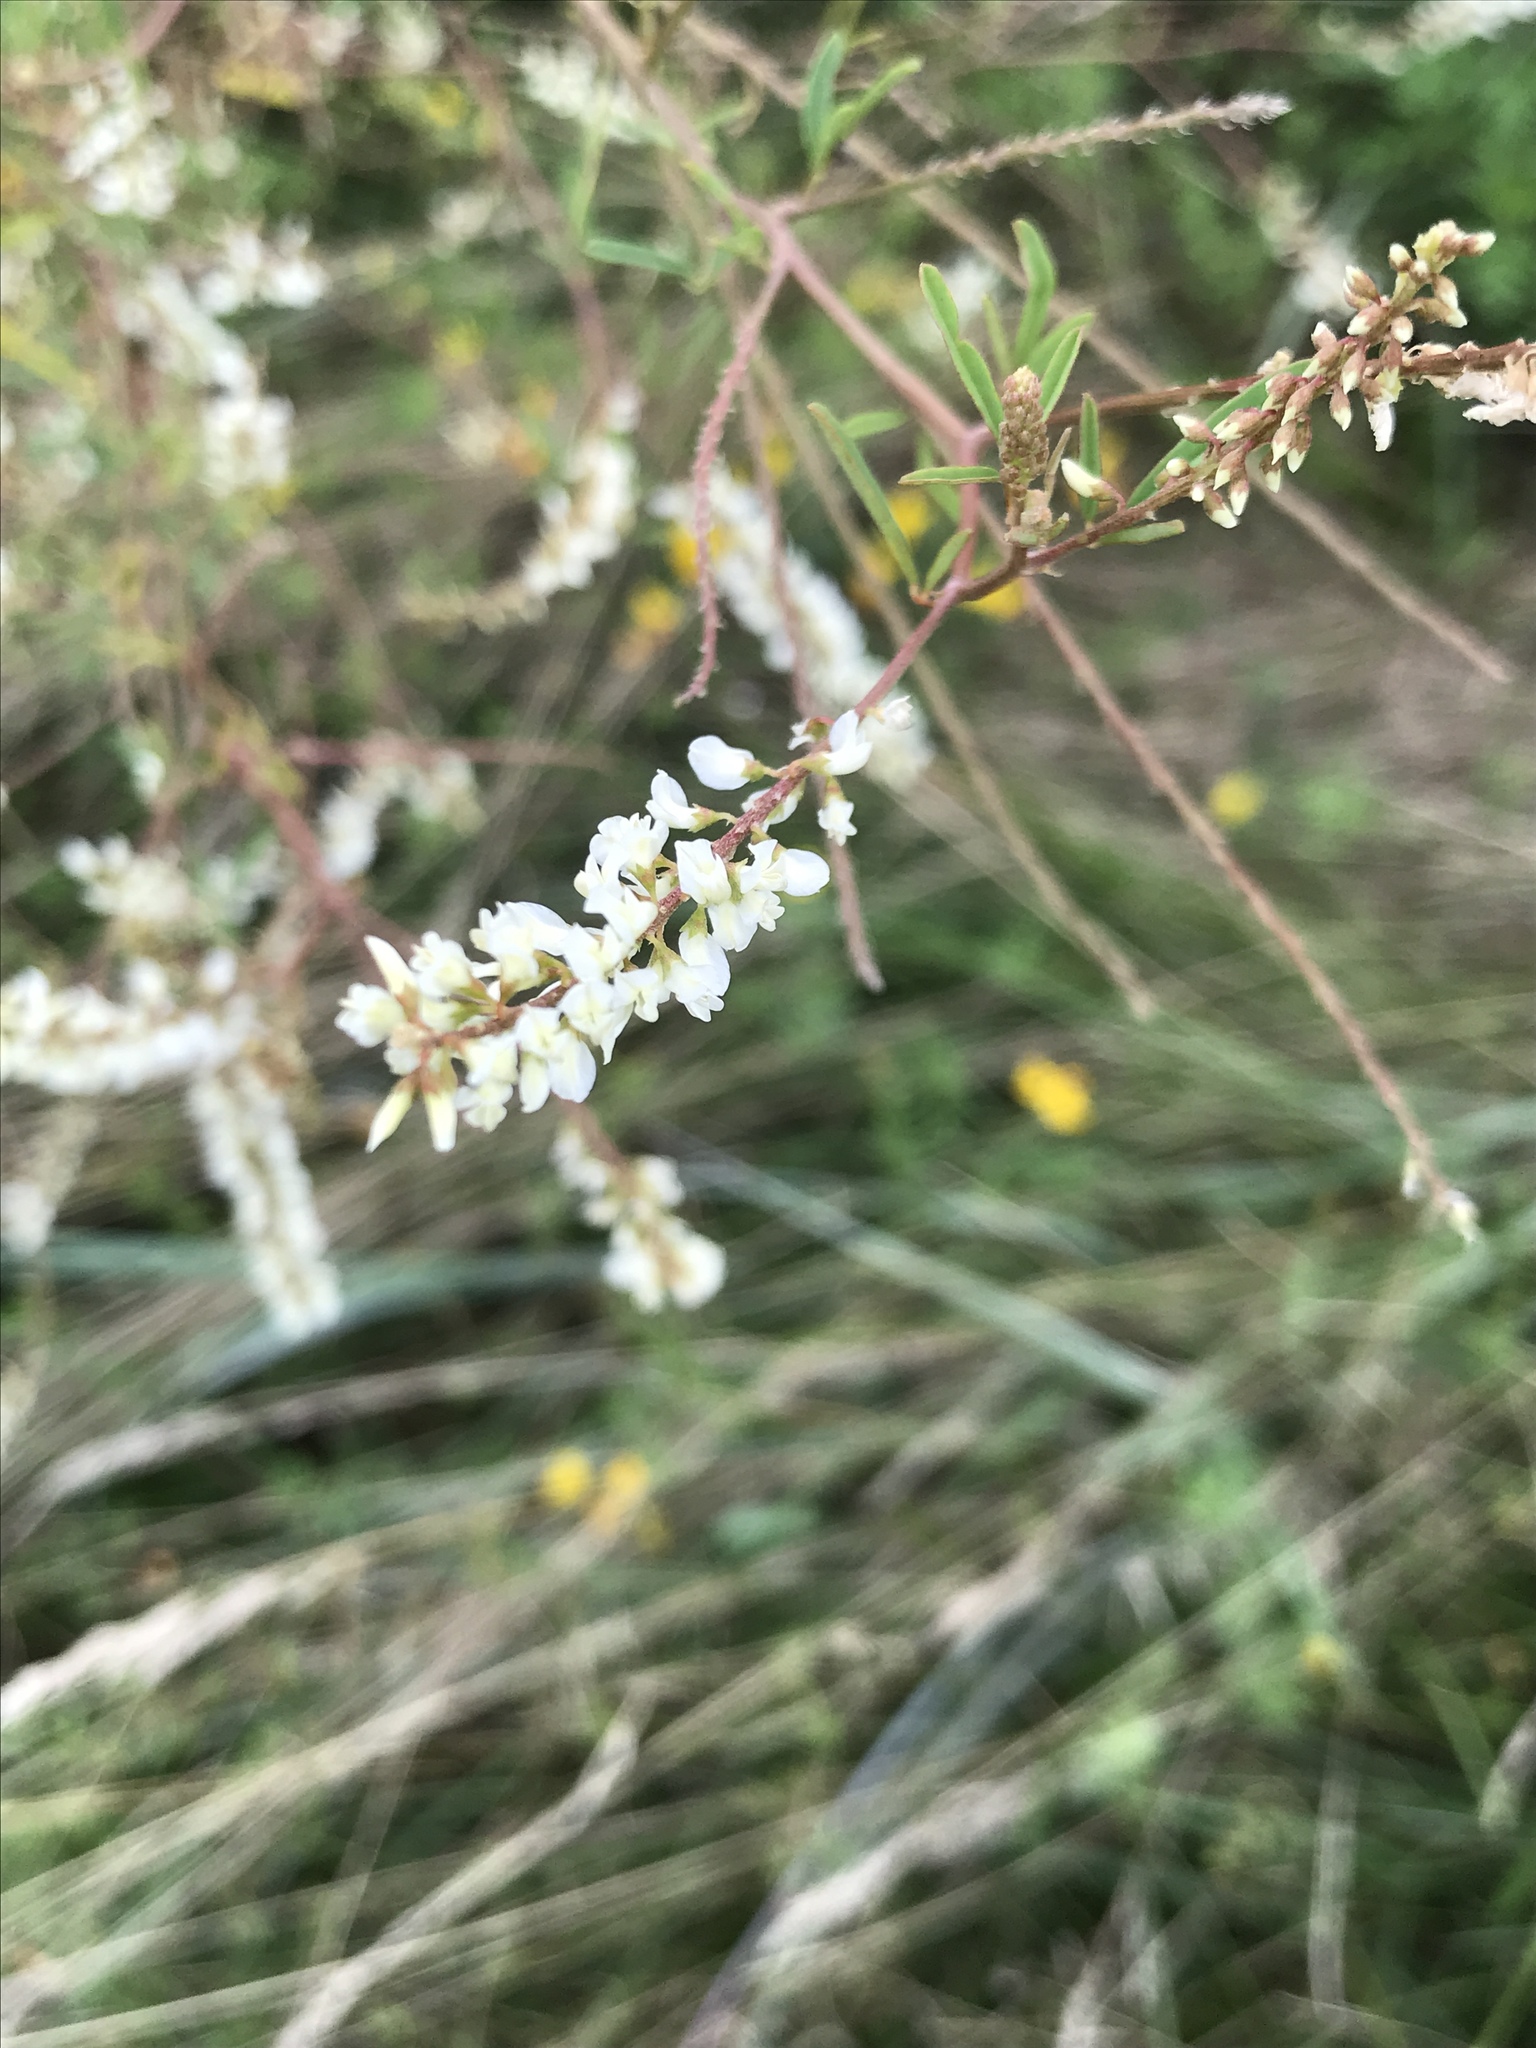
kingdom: Plantae
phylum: Tracheophyta
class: Magnoliopsida
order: Fabales
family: Fabaceae
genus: Melilotus
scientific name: Melilotus albus
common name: White melilot
